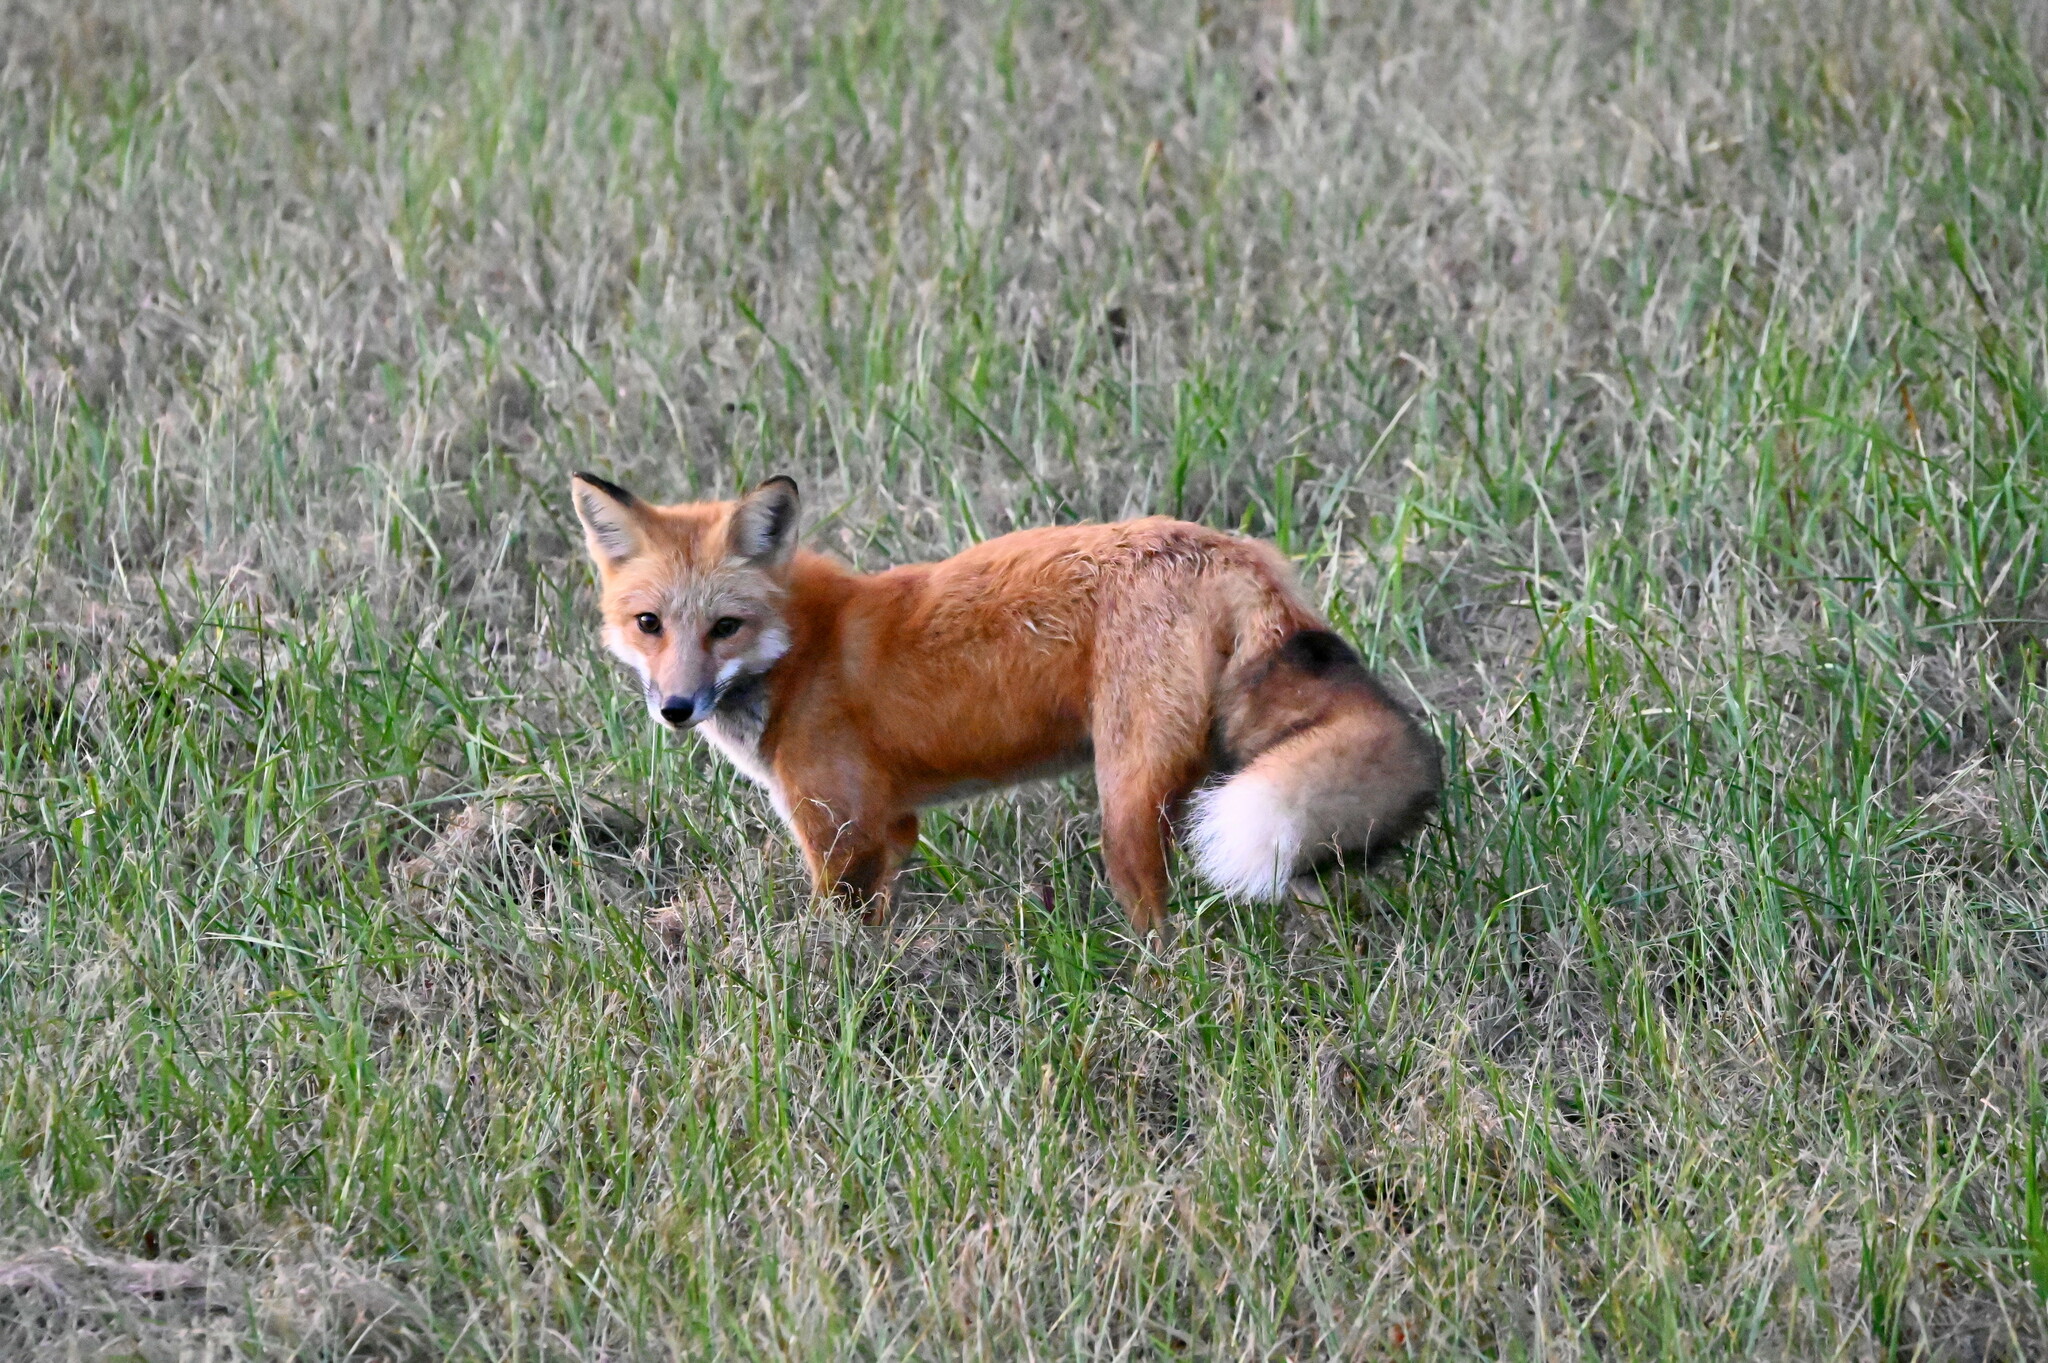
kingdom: Animalia
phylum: Chordata
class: Mammalia
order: Carnivora
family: Canidae
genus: Vulpes
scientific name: Vulpes vulpes
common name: Red fox
